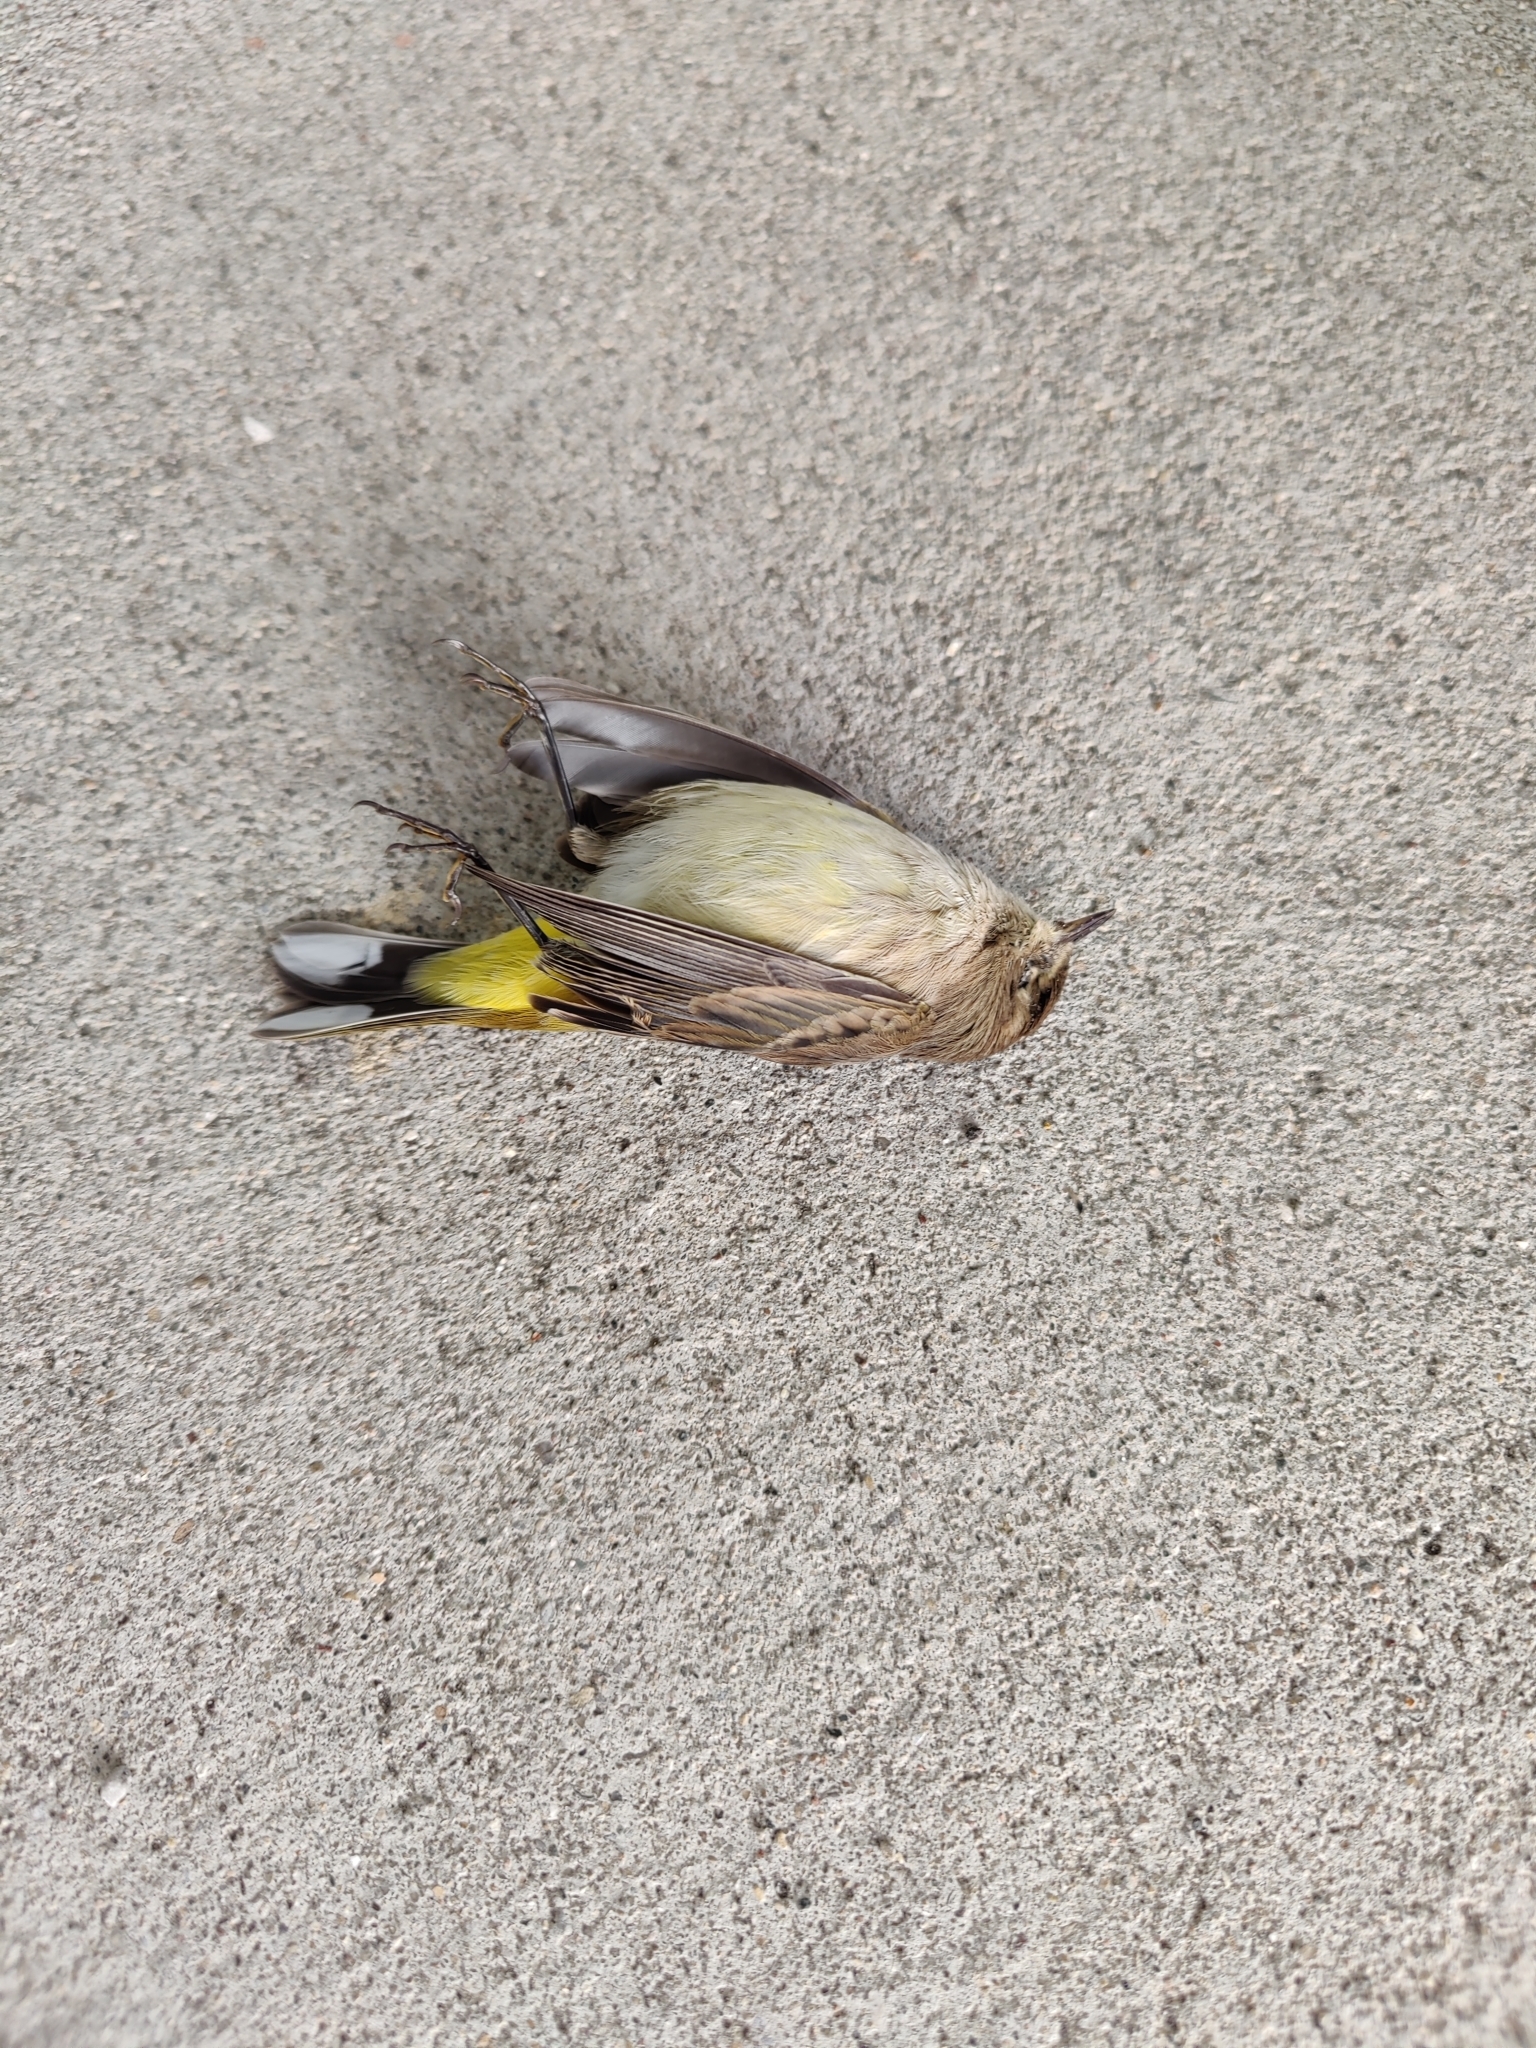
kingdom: Animalia
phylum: Chordata
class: Aves
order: Passeriformes
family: Parulidae
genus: Setophaga
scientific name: Setophaga palmarum
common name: Palm warbler
